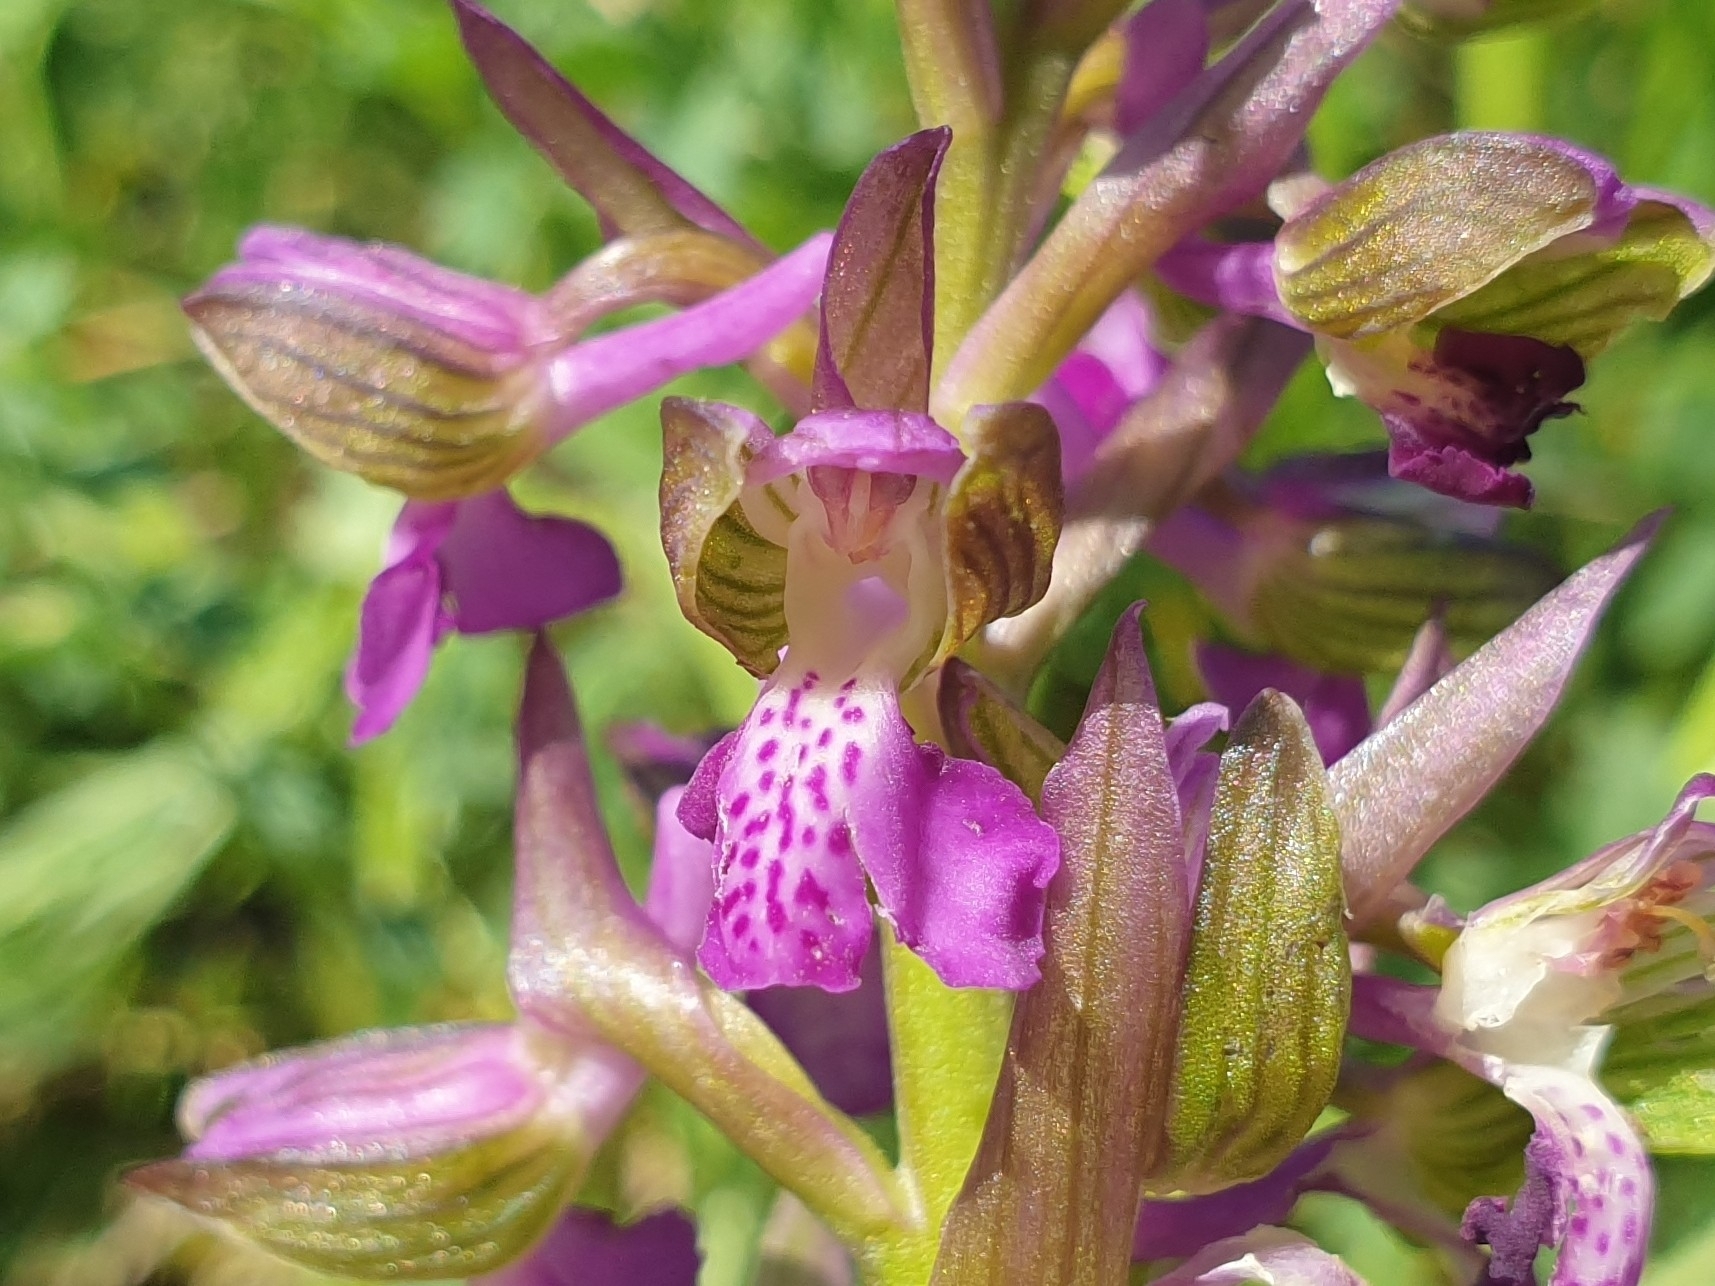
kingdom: Plantae
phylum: Tracheophyta
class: Liliopsida
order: Asparagales
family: Orchidaceae
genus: Anacamptis
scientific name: Anacamptis morio
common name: Green-winged orchid
